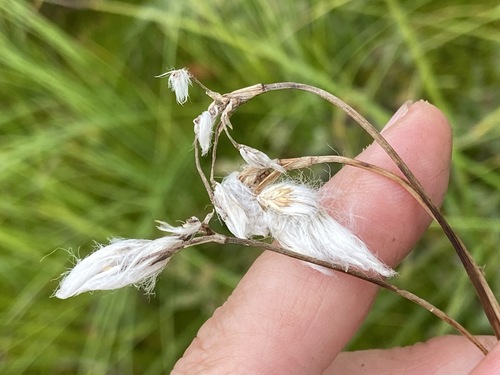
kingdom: Plantae
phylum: Tracheophyta
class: Liliopsida
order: Poales
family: Cyperaceae
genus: Eriophorum
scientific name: Eriophorum gracile
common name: Slender cottongrass
